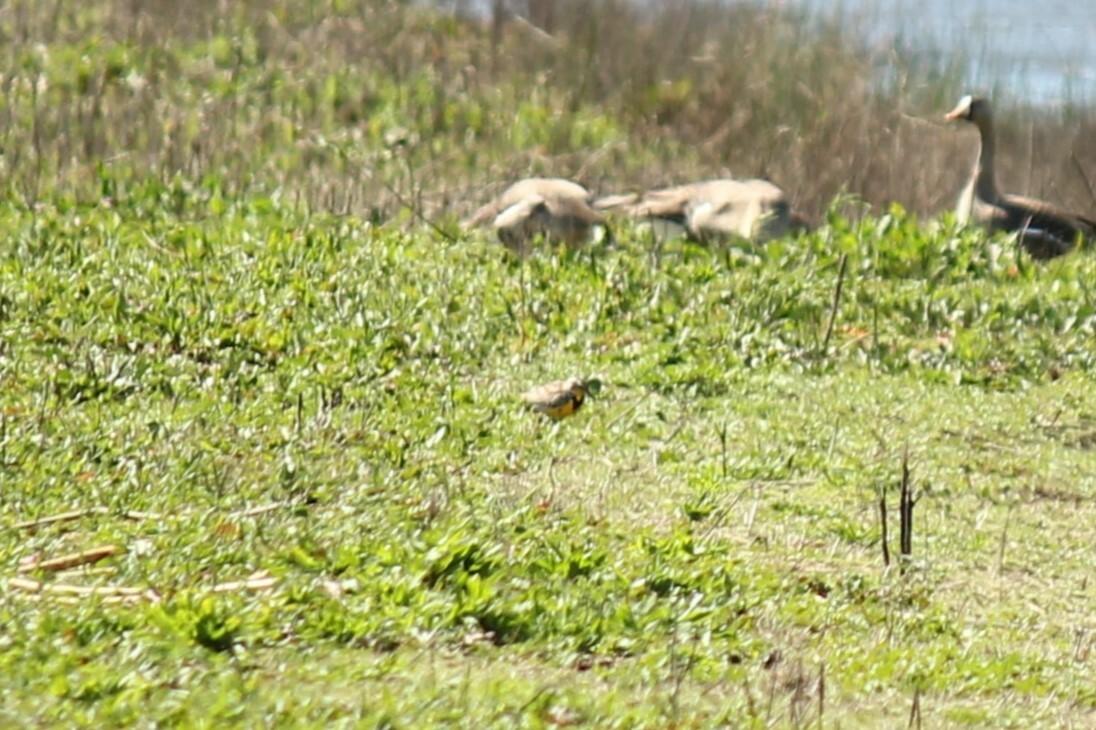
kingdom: Animalia
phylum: Chordata
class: Aves
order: Passeriformes
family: Icteridae
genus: Sturnella
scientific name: Sturnella neglecta
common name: Western meadowlark
